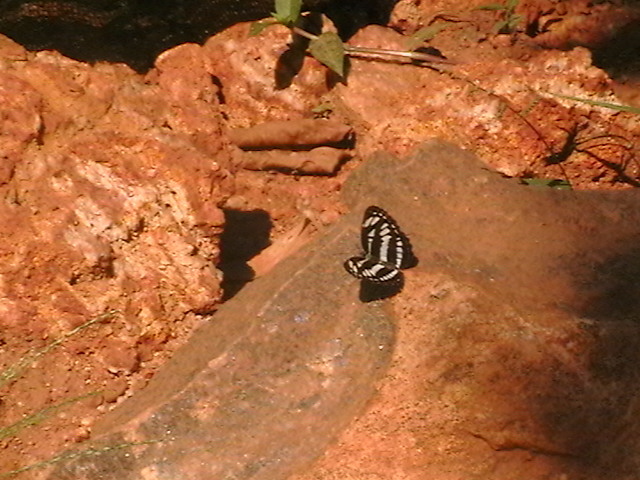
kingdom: Animalia
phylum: Arthropoda
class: Insecta
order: Lepidoptera
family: Nymphalidae
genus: Neptis
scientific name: Neptis hylas
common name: Common sailer
